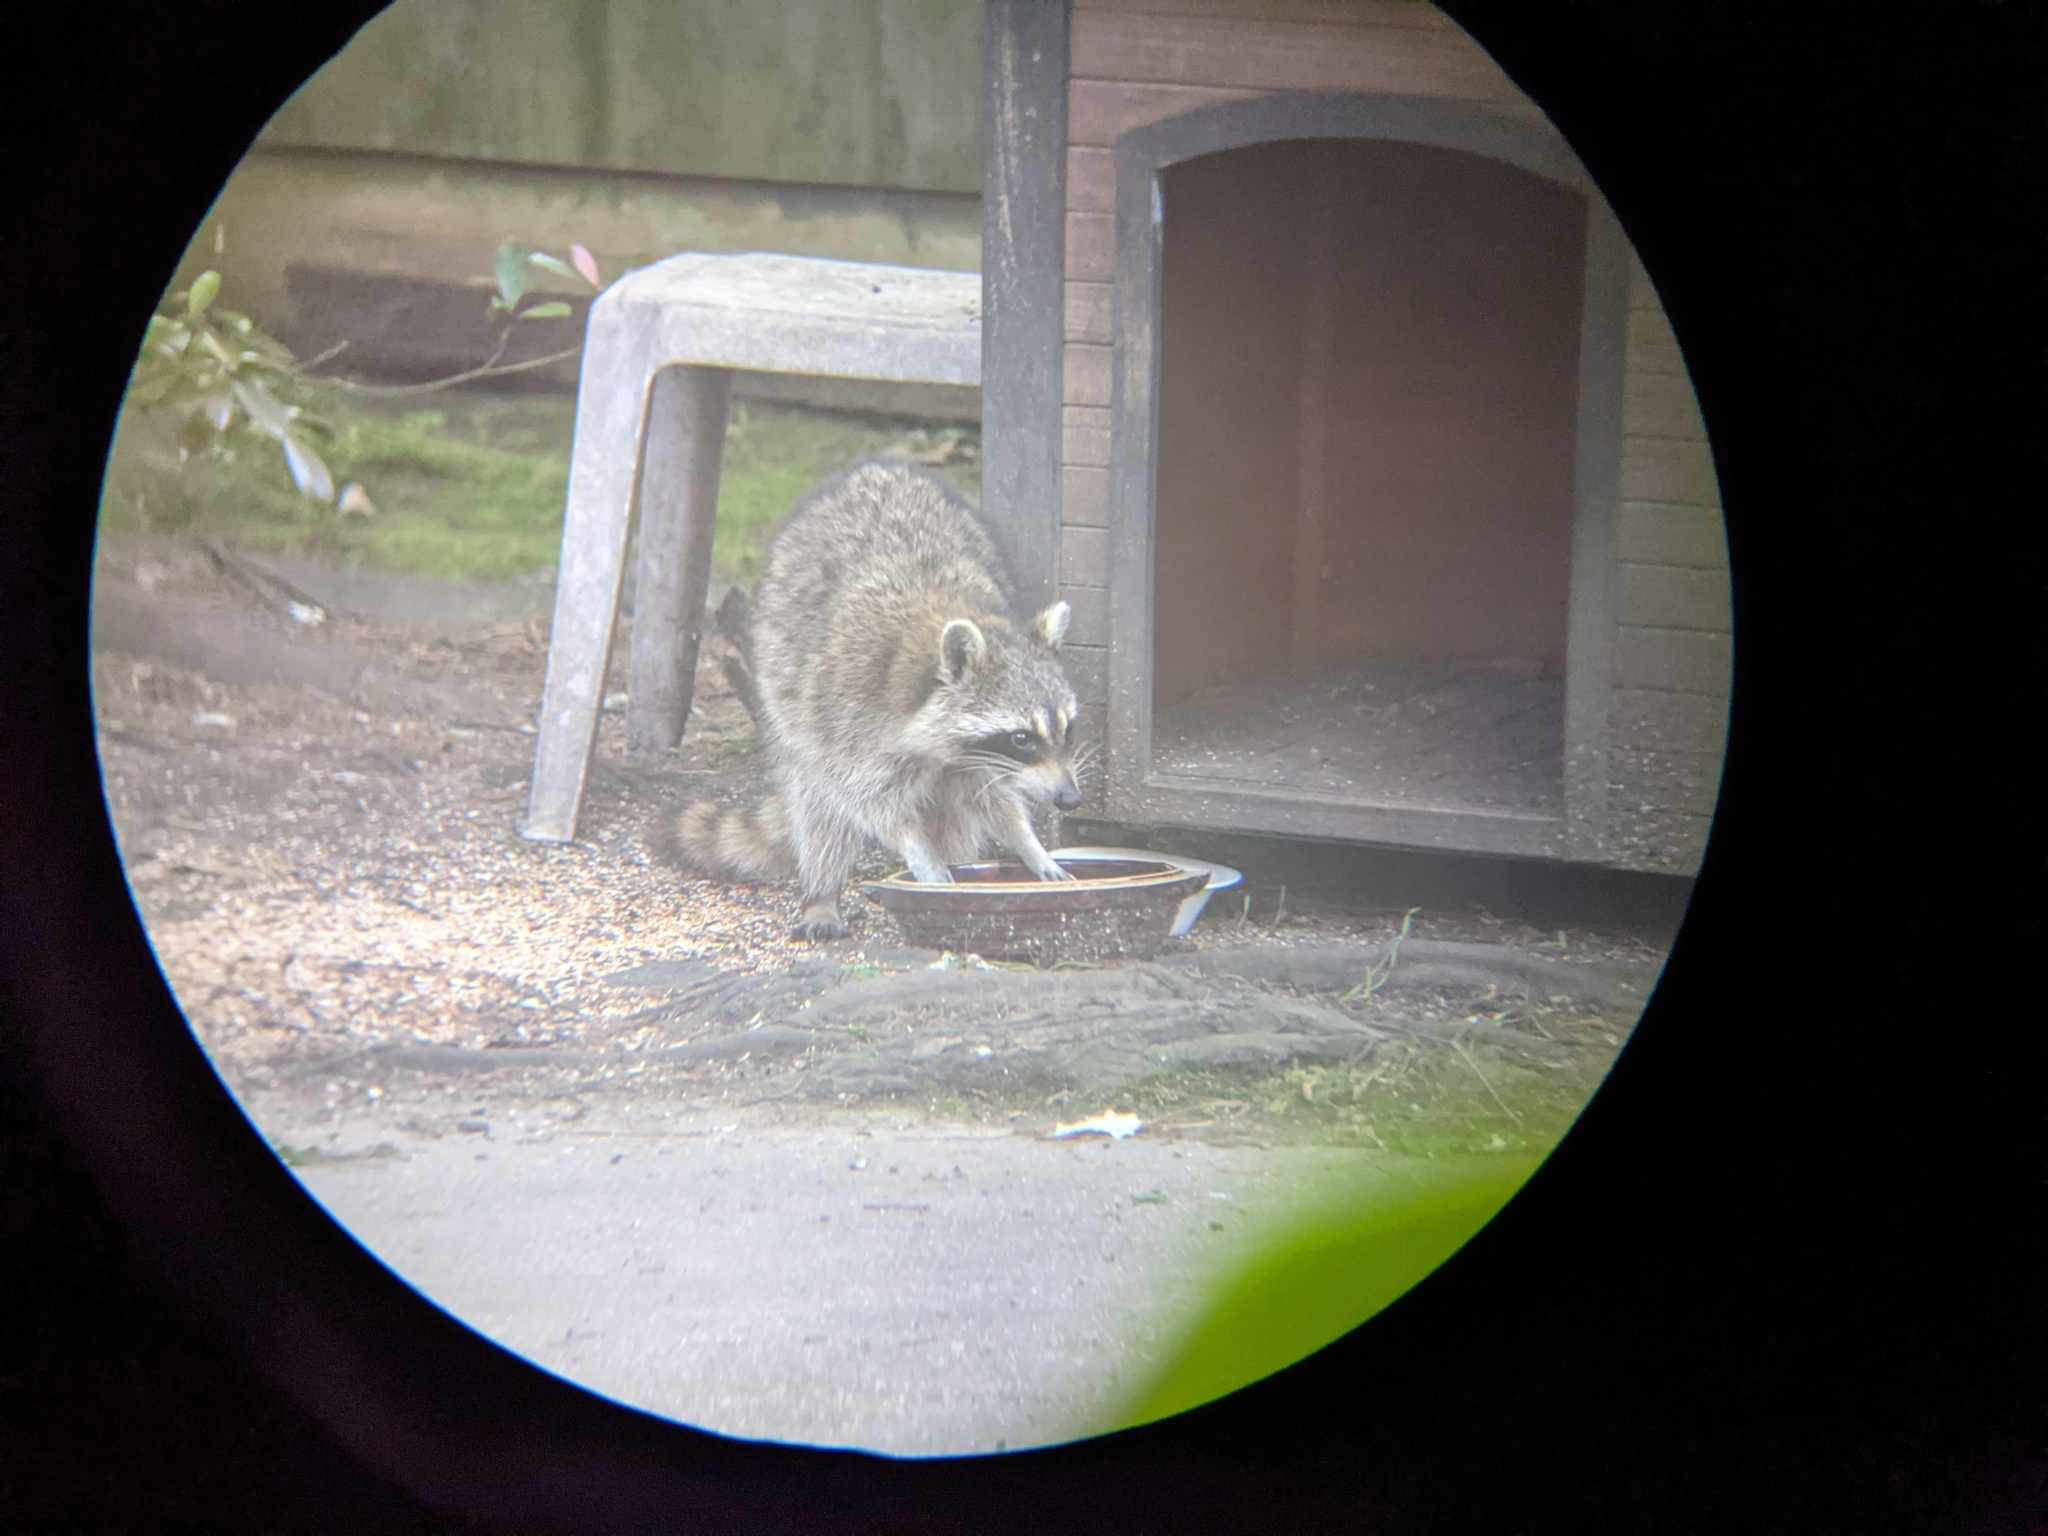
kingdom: Animalia
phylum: Chordata
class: Mammalia
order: Carnivora
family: Procyonidae
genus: Procyon
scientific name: Procyon lotor
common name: Raccoon
